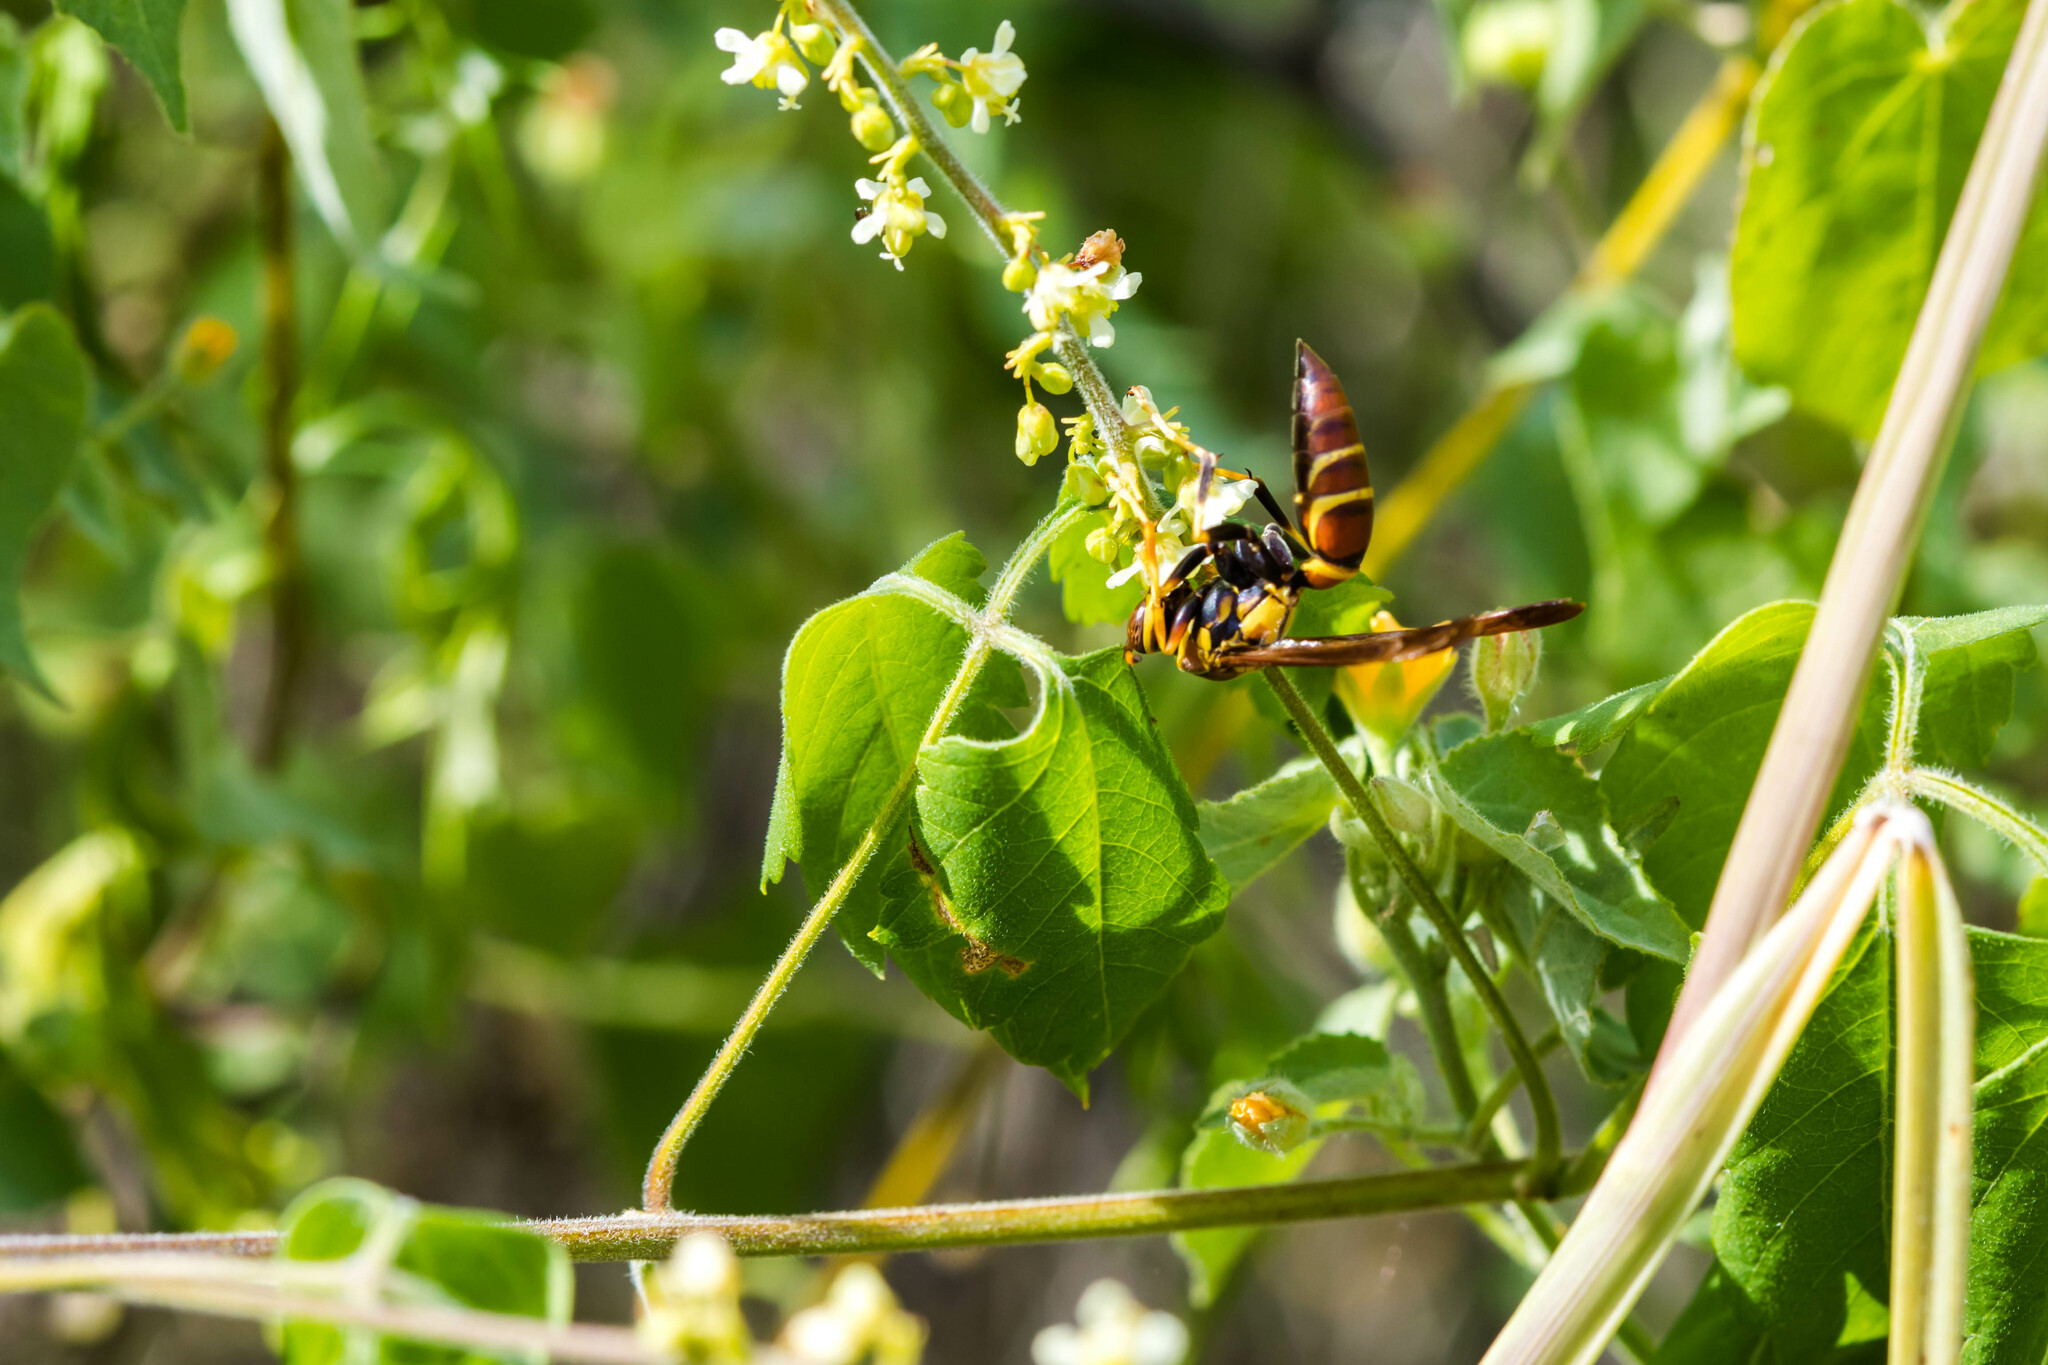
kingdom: Animalia
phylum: Arthropoda
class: Insecta
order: Hymenoptera
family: Eumenidae
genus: Polistes
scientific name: Polistes instabilis
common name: Unstable paper wasp
